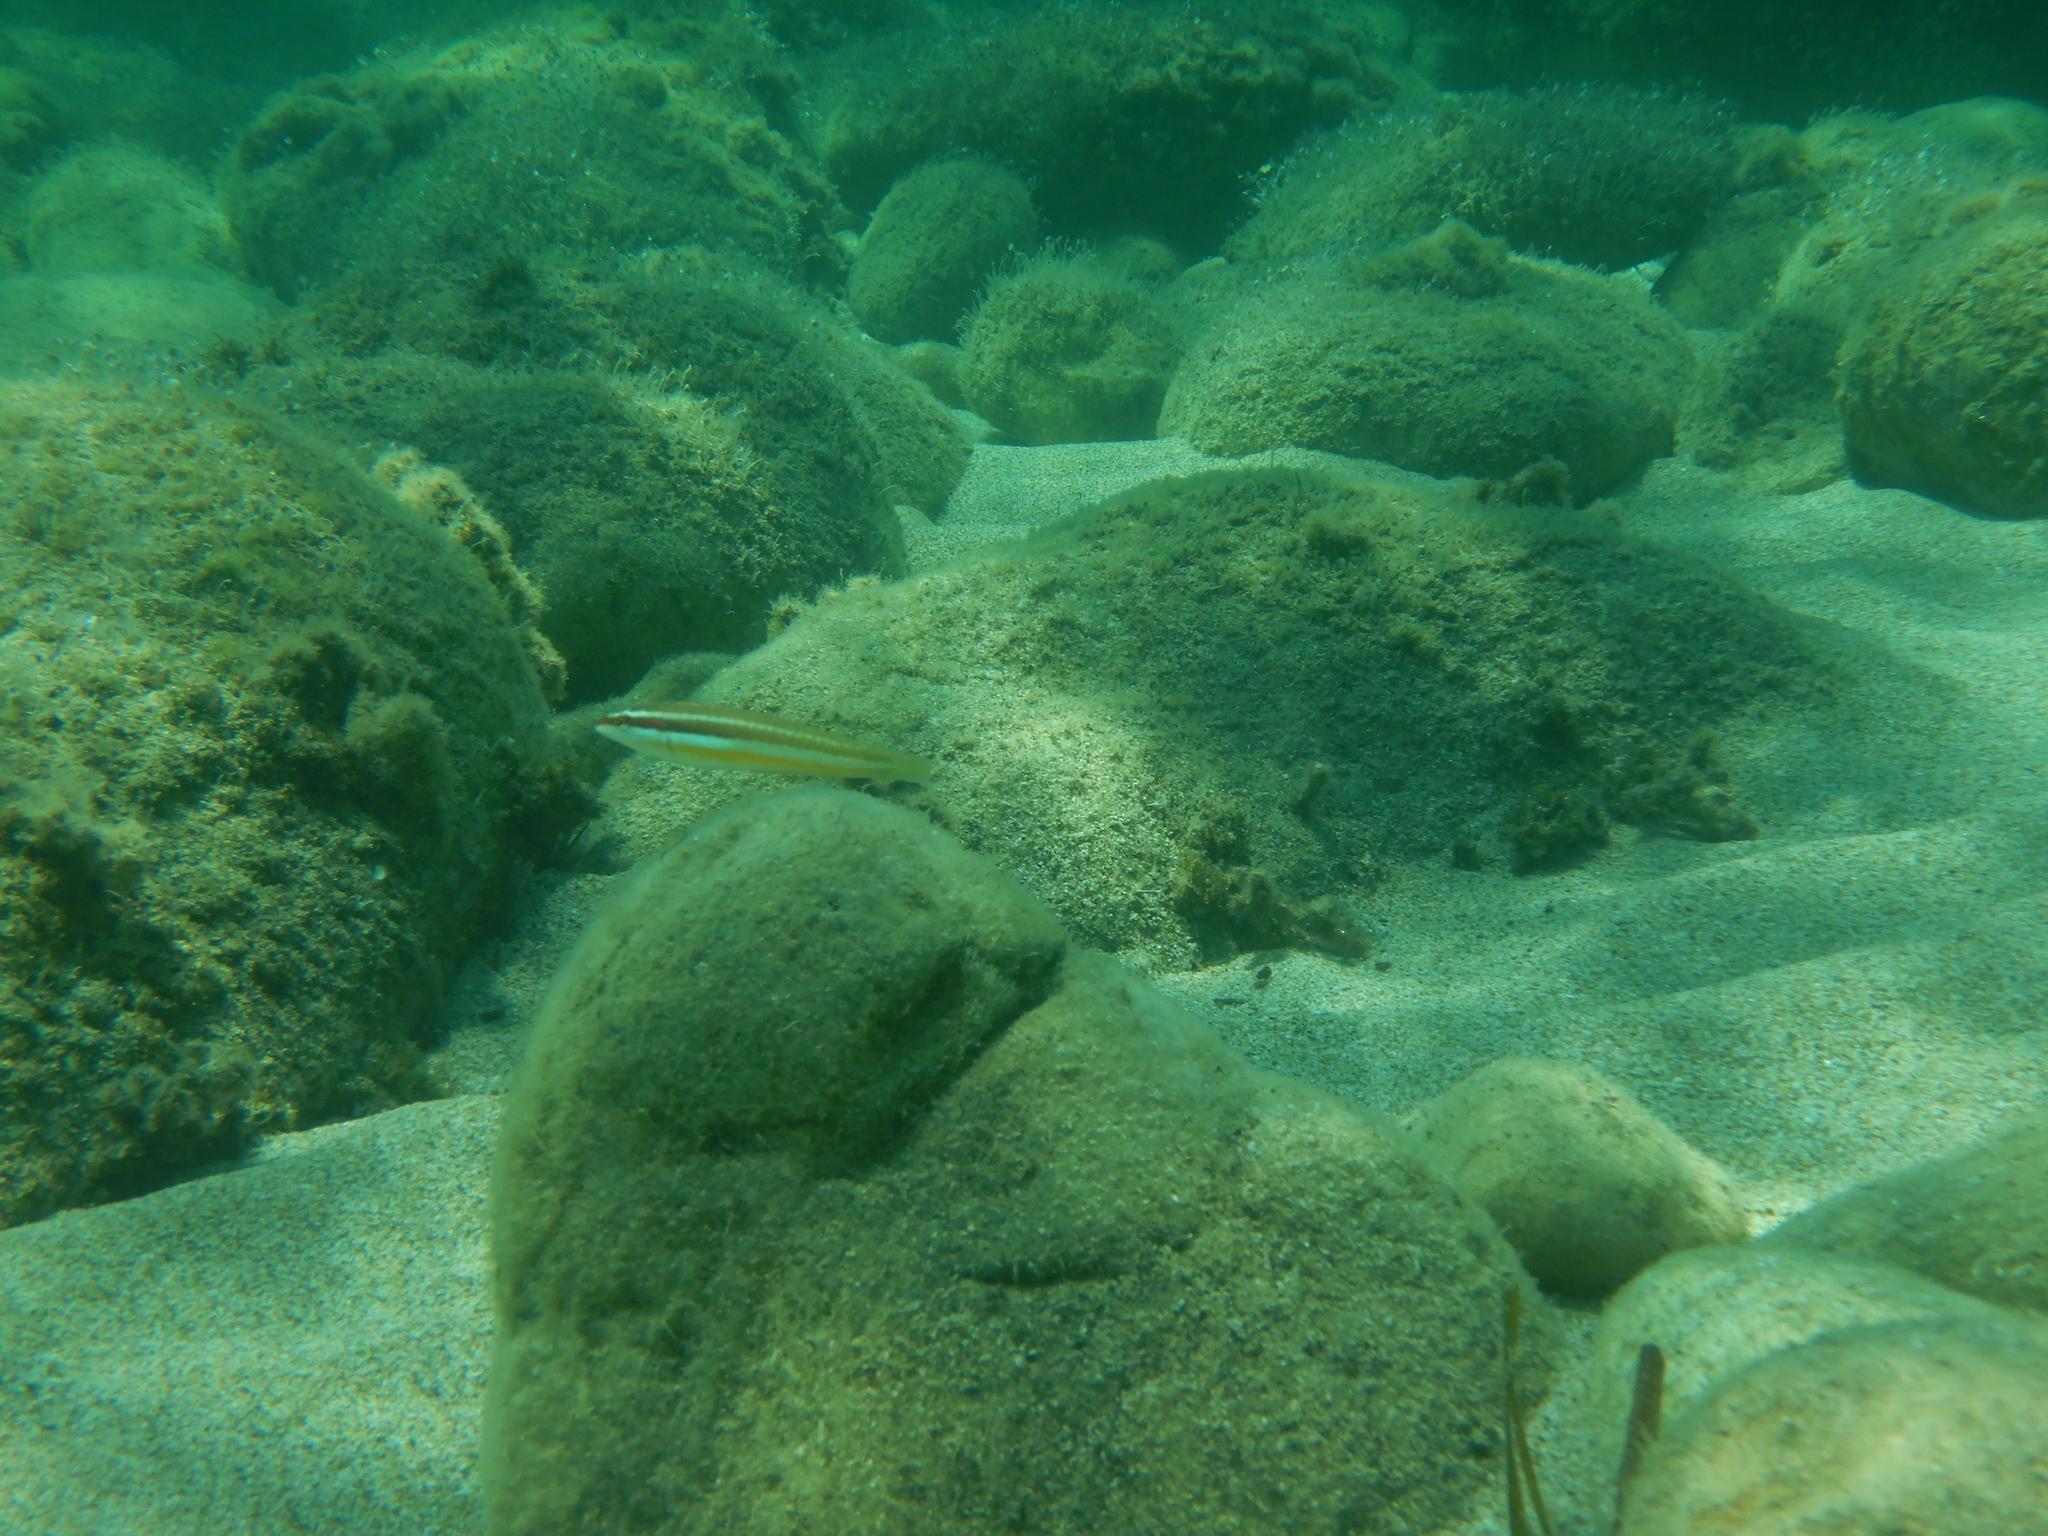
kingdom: Animalia
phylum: Chordata
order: Perciformes
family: Labridae
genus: Coris
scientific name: Coris julis
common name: Rainbow wrasse
